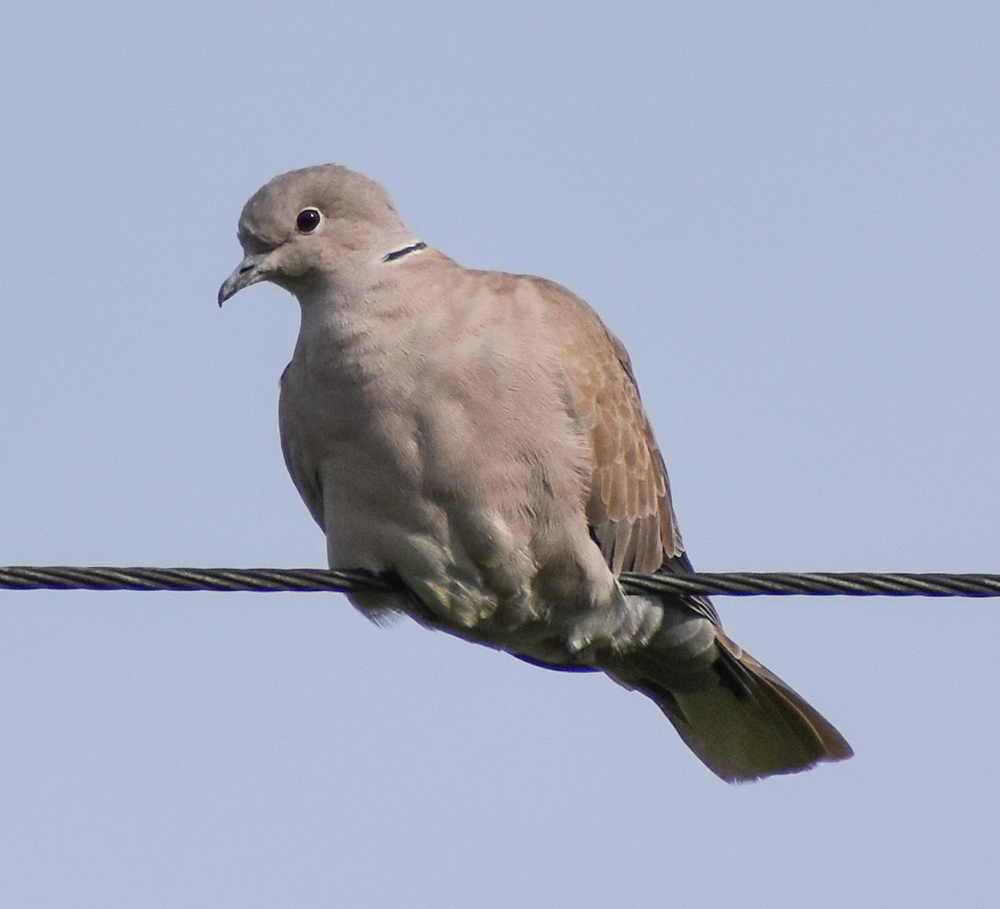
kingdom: Animalia
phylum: Chordata
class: Aves
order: Columbiformes
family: Columbidae
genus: Streptopelia
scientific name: Streptopelia decaocto
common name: Eurasian collared dove
